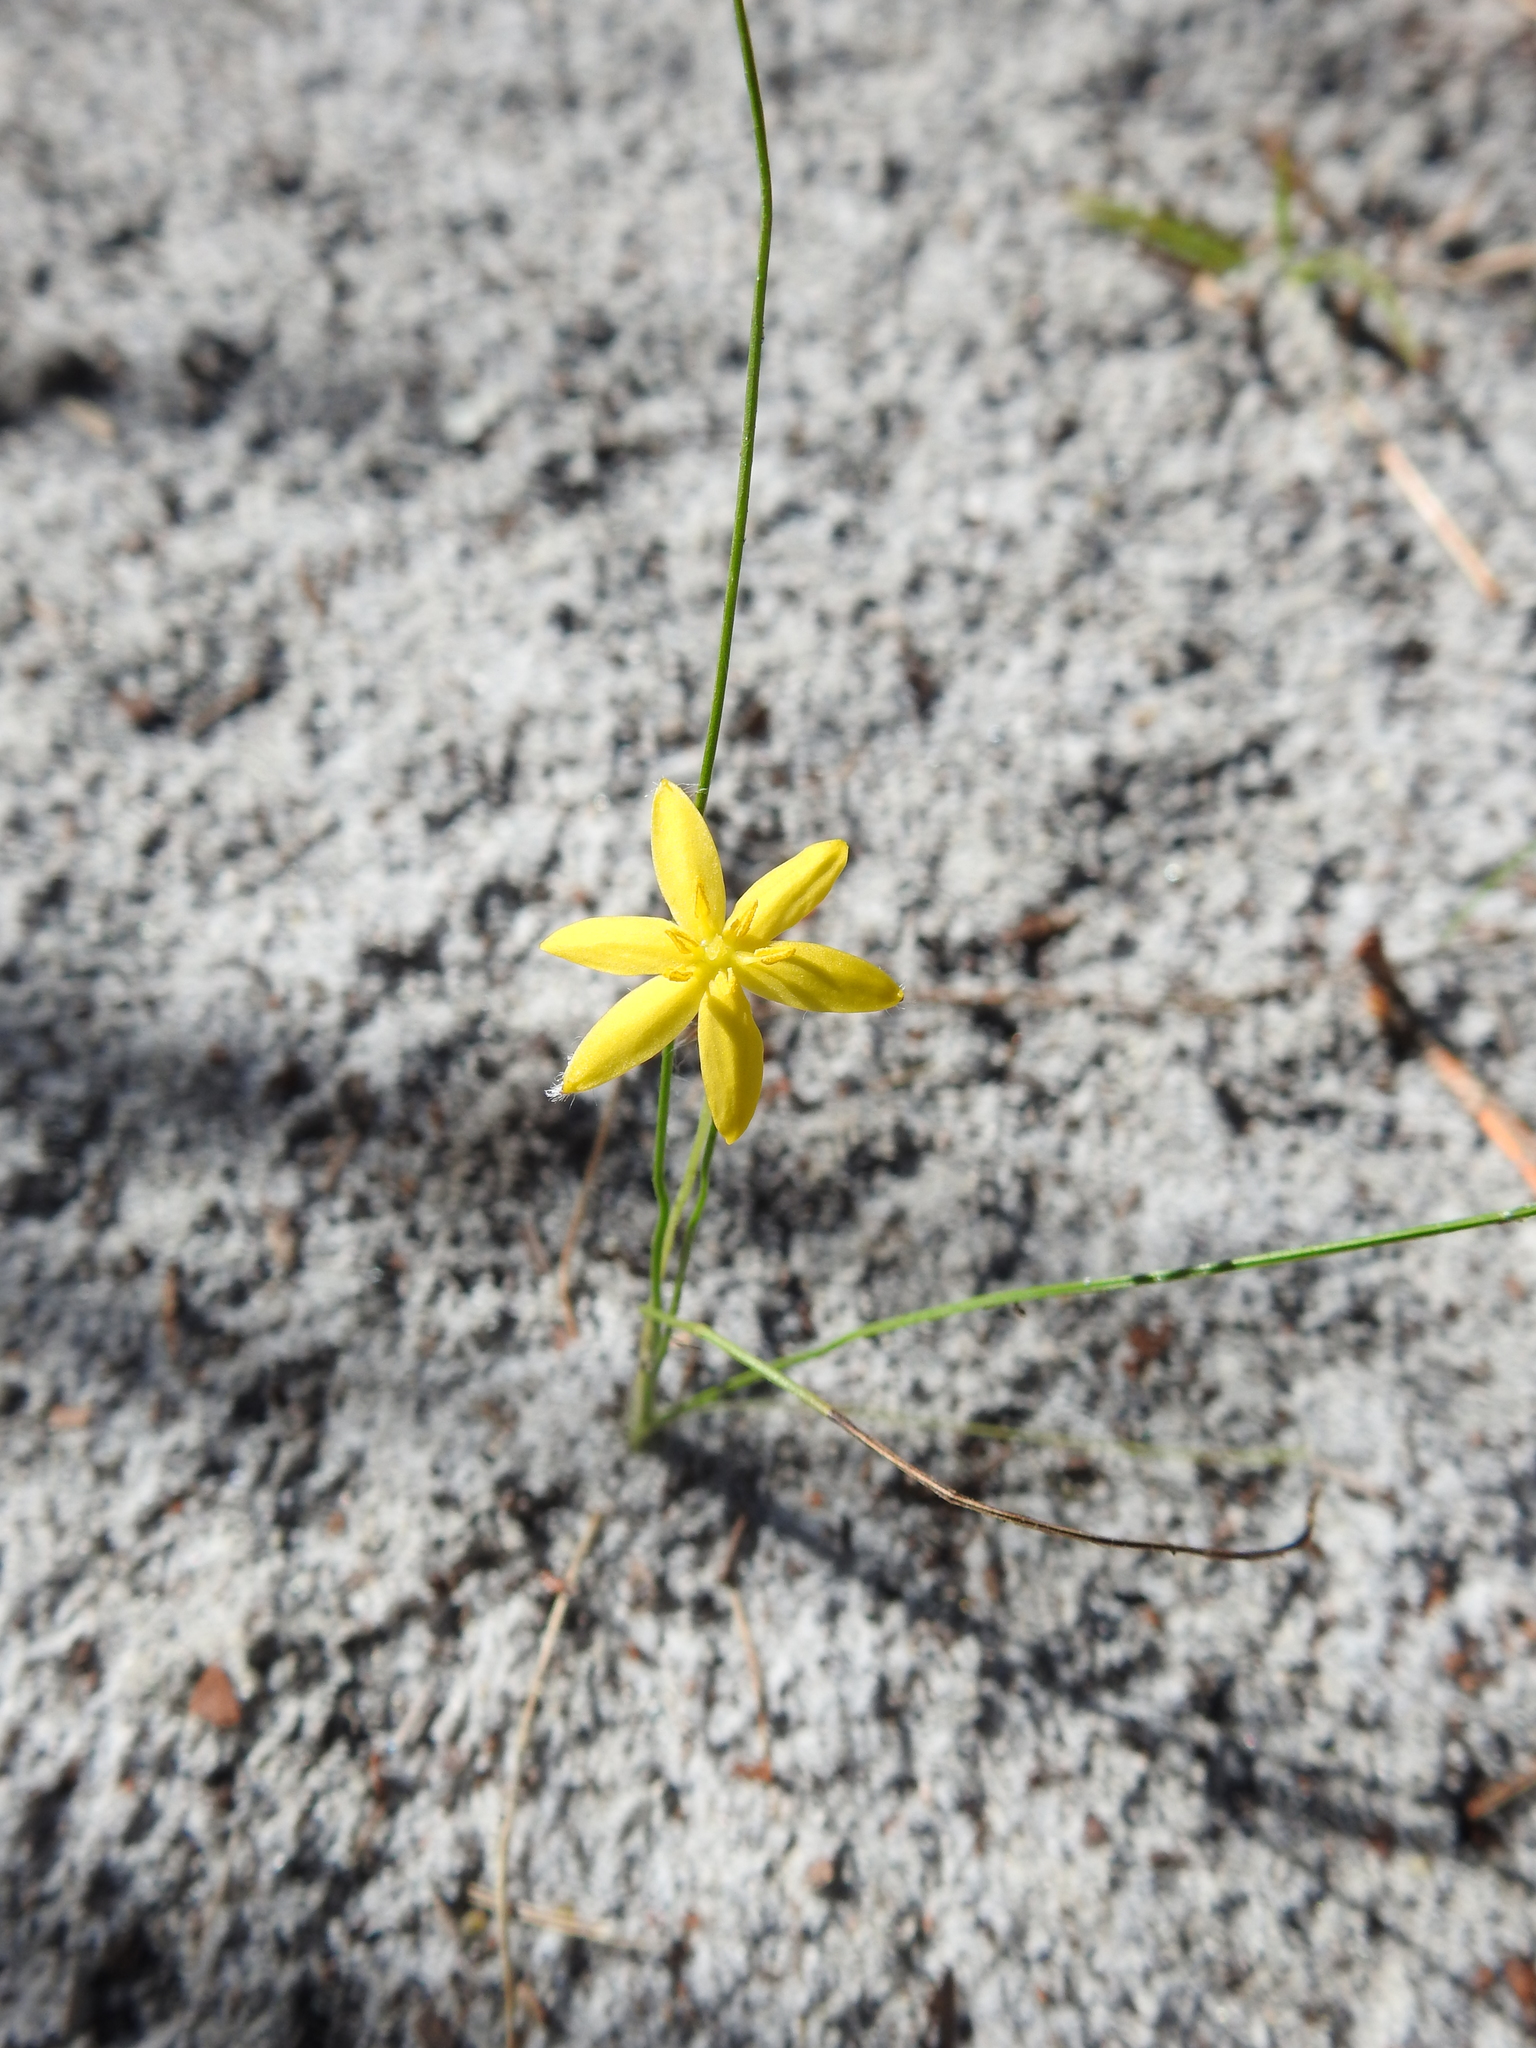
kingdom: Plantae
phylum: Tracheophyta
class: Liliopsida
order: Asparagales
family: Hypoxidaceae
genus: Hypoxis
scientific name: Hypoxis juncea
